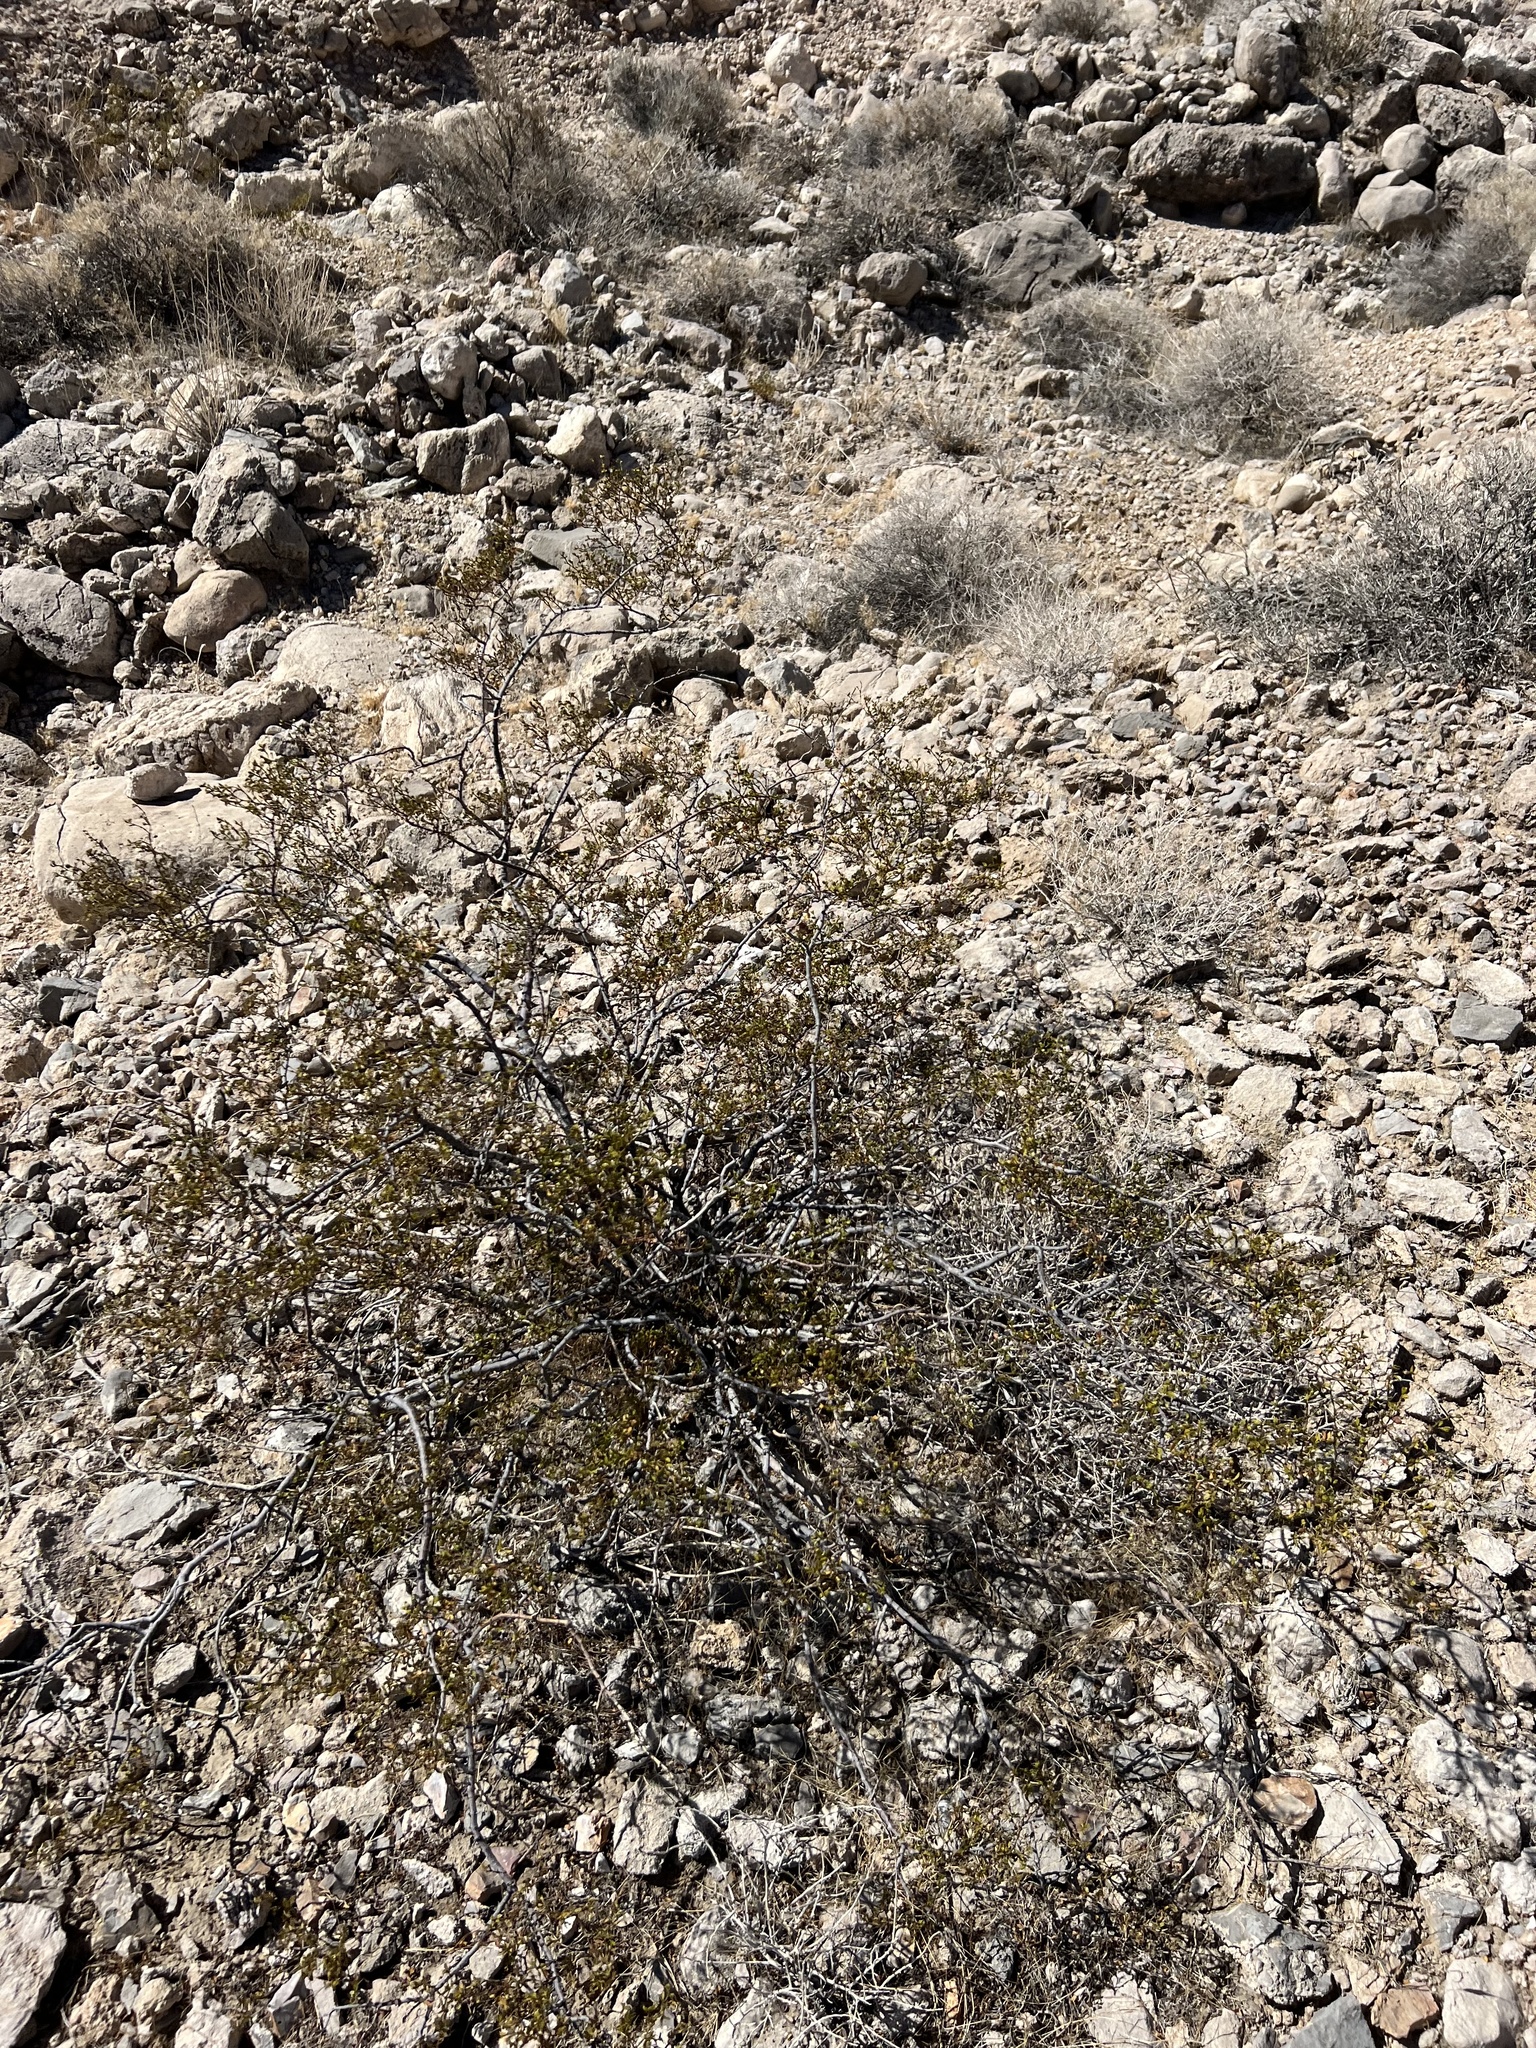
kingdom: Plantae
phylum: Tracheophyta
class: Magnoliopsida
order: Zygophyllales
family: Zygophyllaceae
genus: Larrea
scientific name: Larrea tridentata
